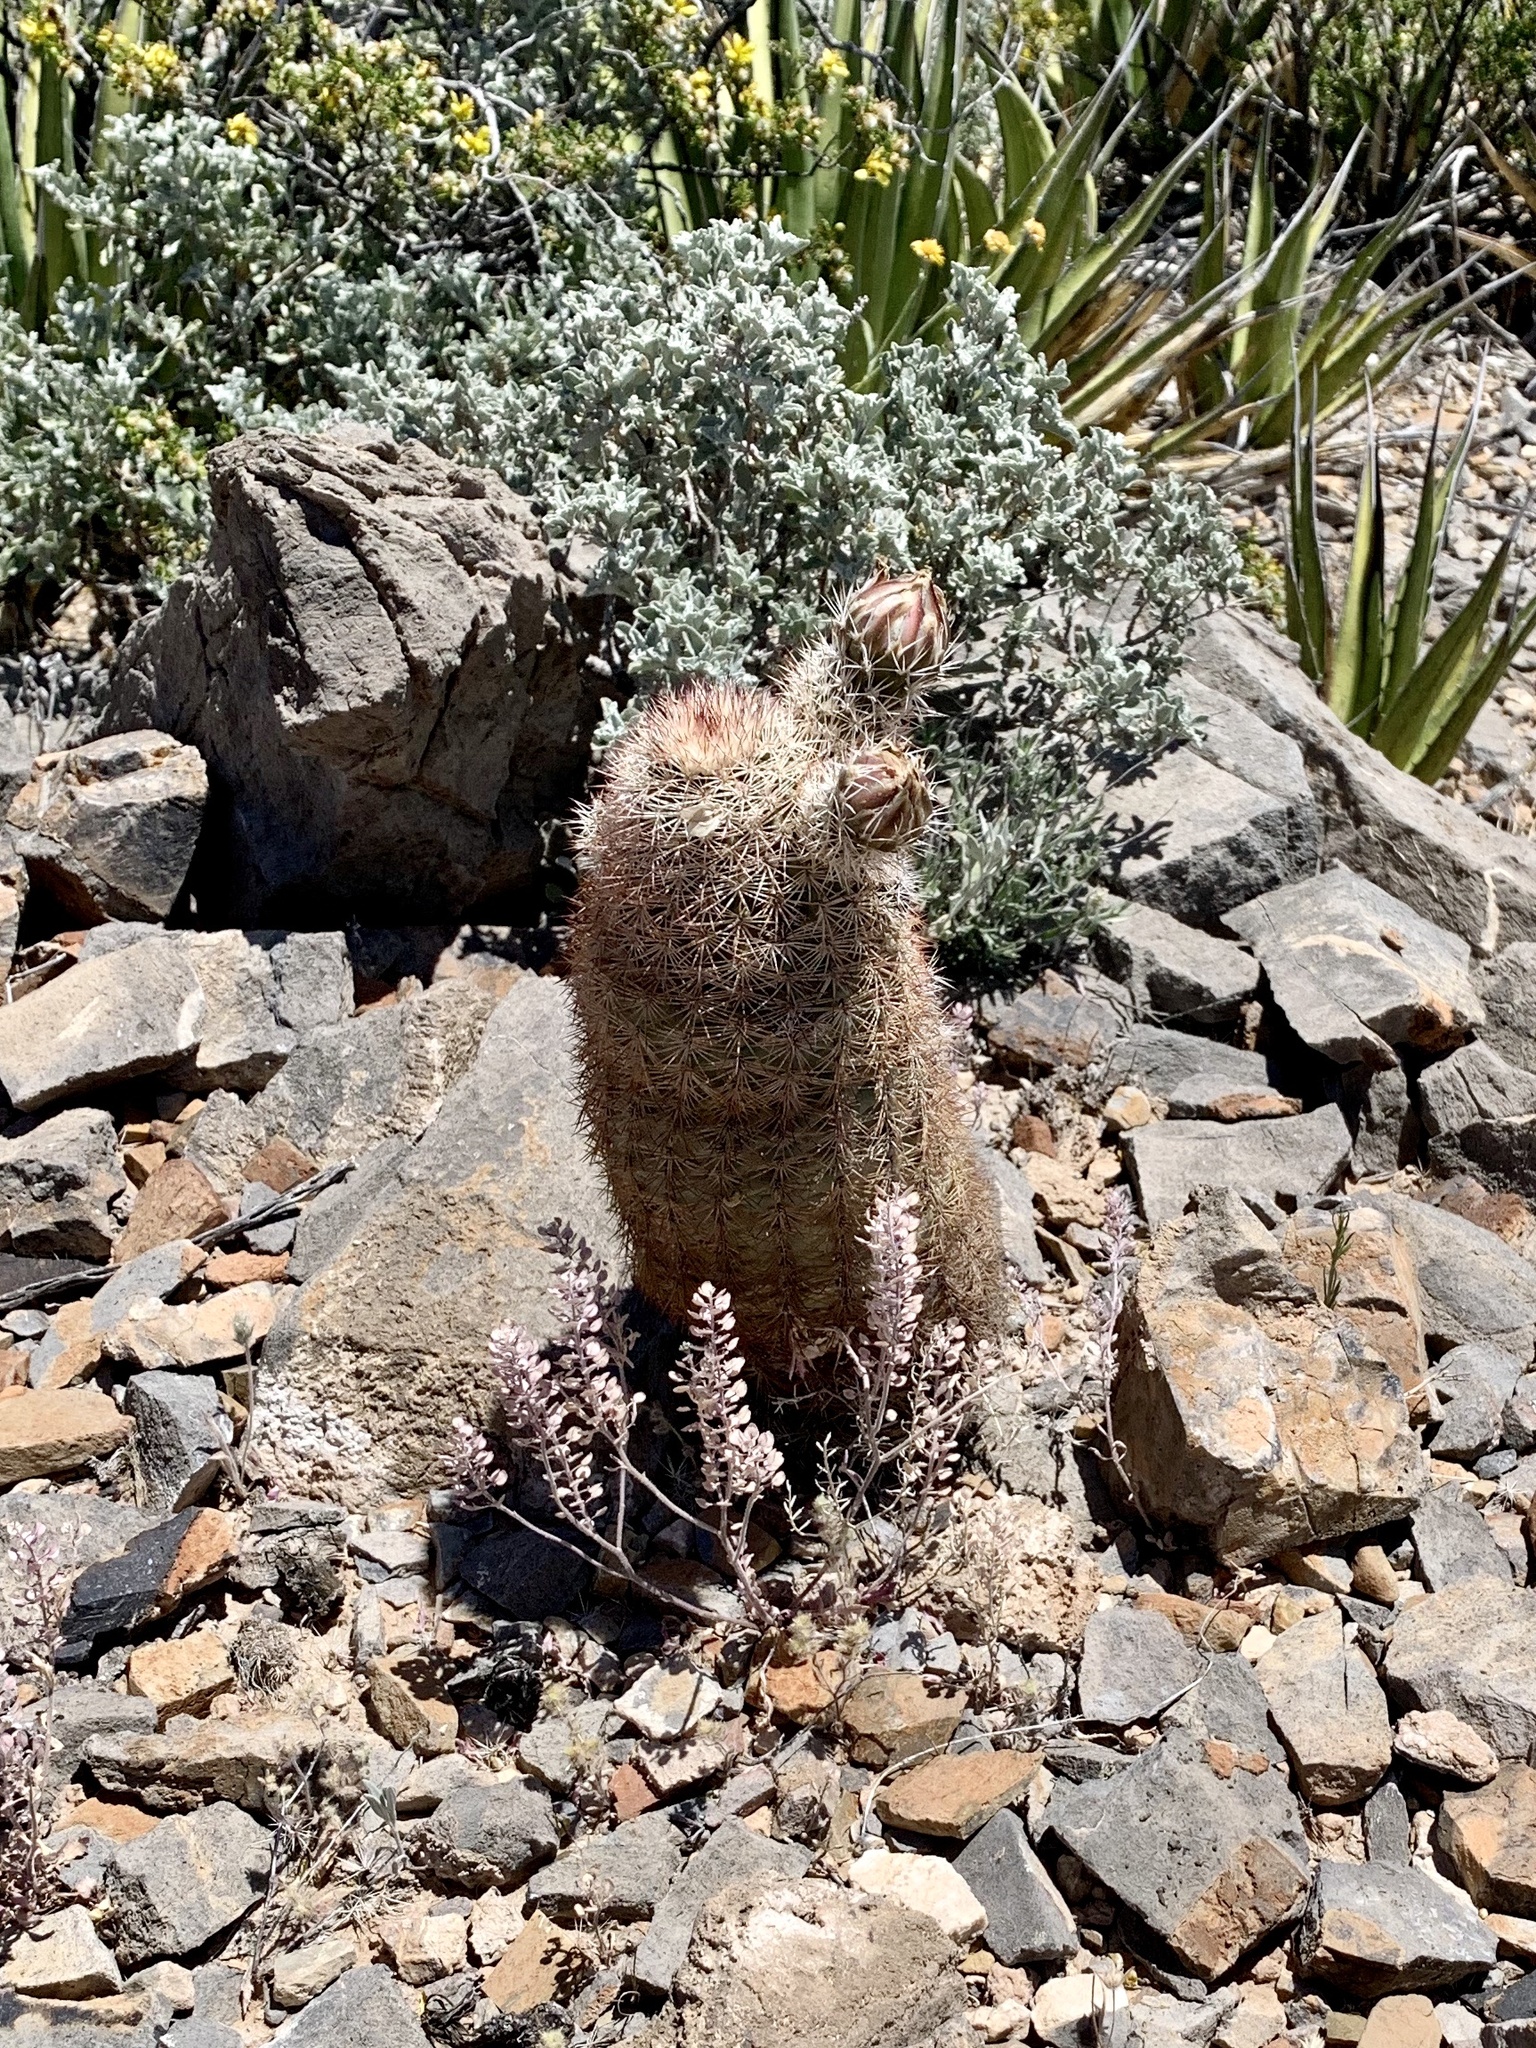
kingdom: Plantae
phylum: Tracheophyta
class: Magnoliopsida
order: Caryophyllales
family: Cactaceae
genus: Echinocereus
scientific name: Echinocereus dasyacanthus
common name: Spiny hedgehog cactus
